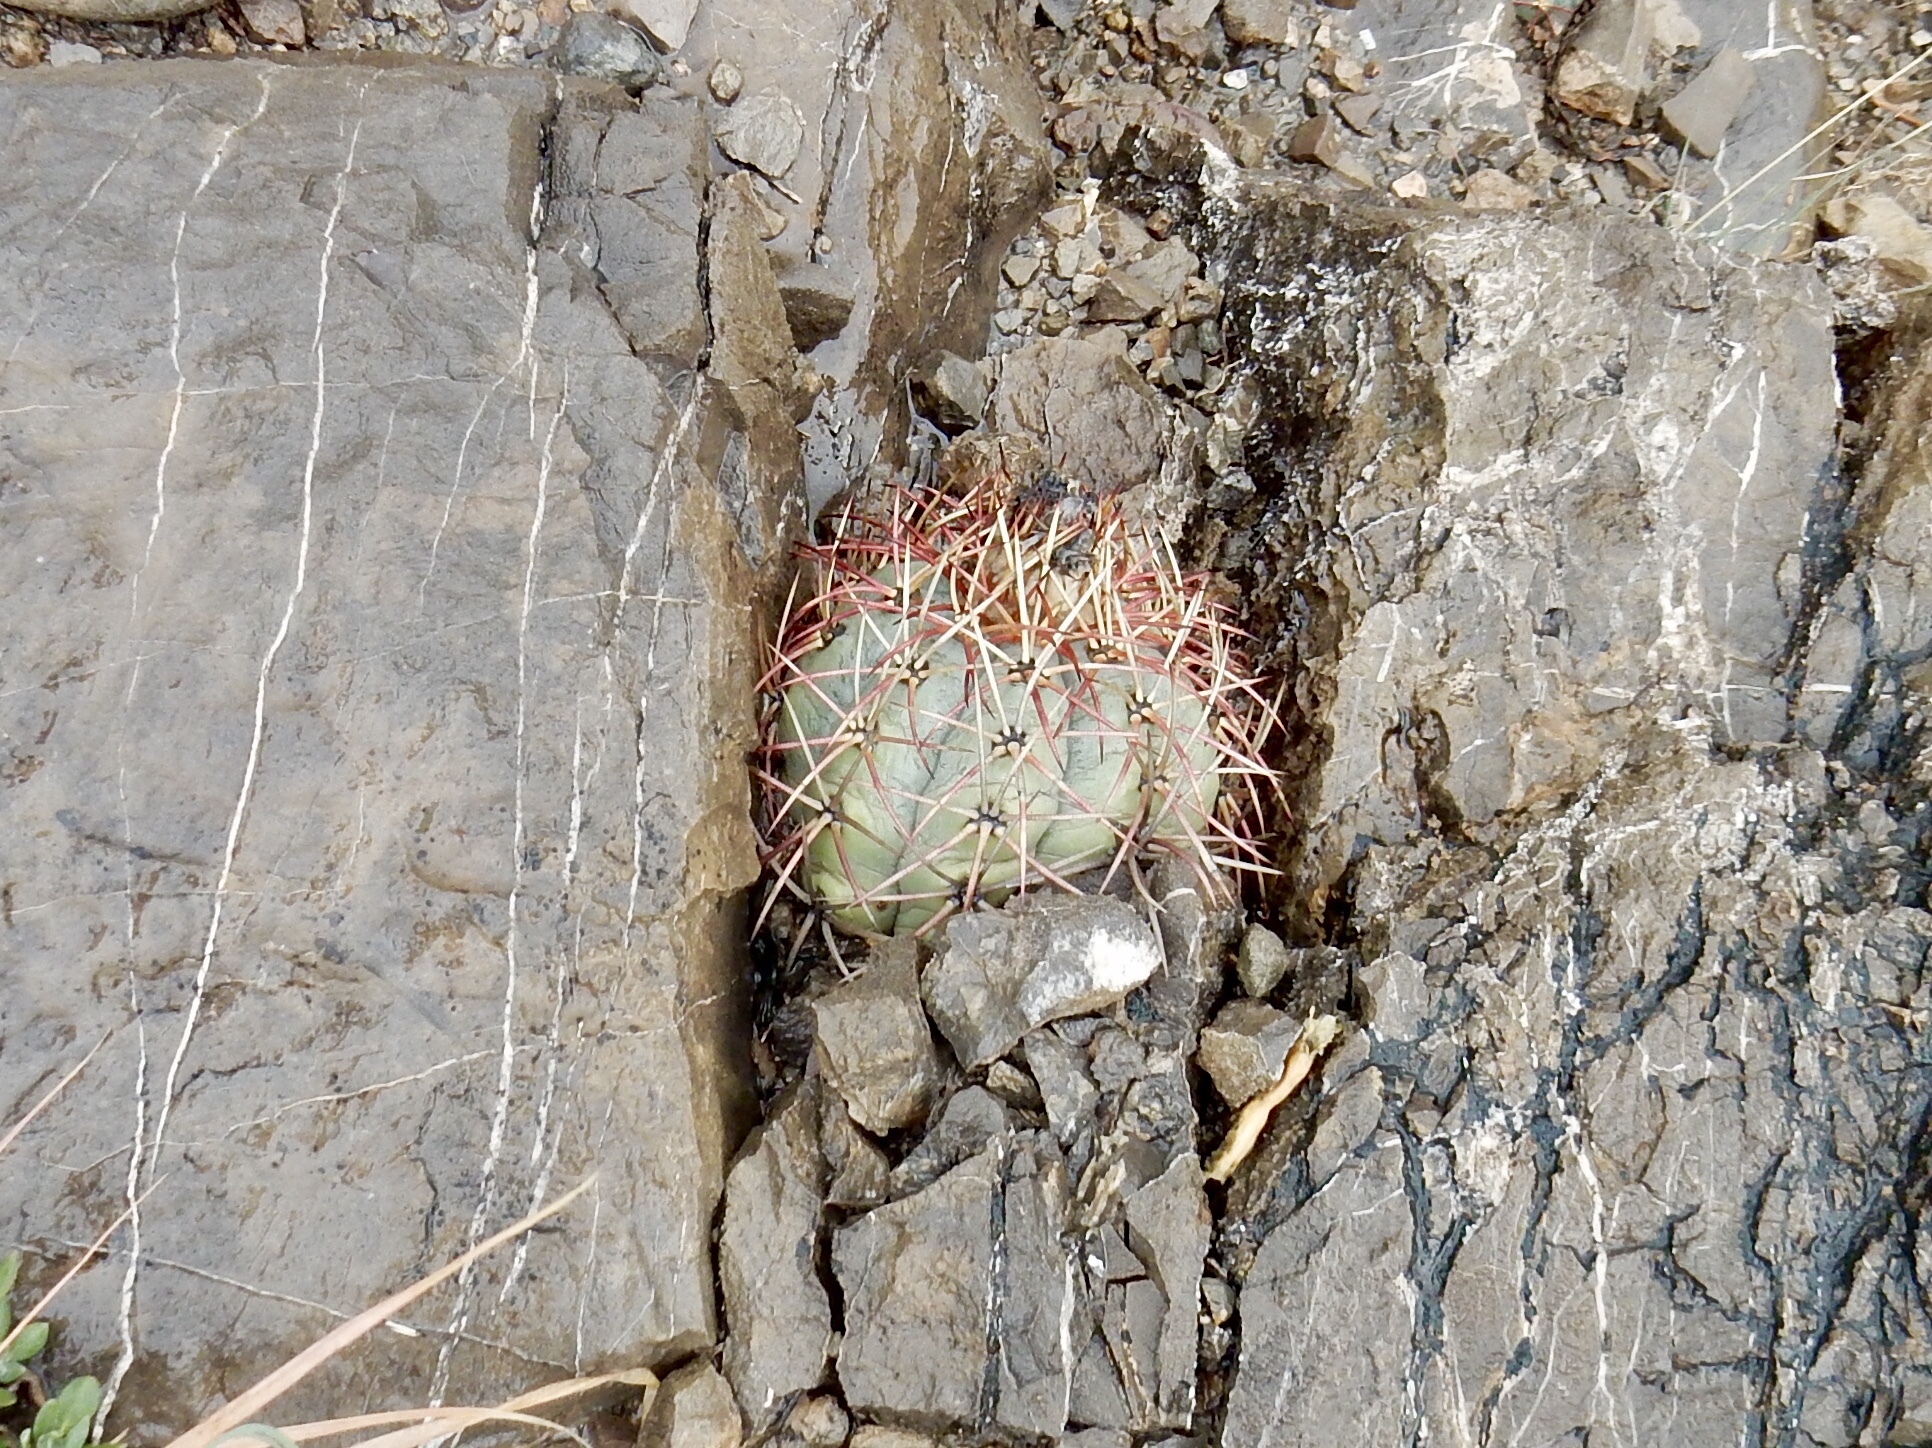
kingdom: Plantae
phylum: Tracheophyta
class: Magnoliopsida
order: Caryophyllales
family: Cactaceae
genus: Echinocactus
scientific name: Echinocactus horizonthalonius
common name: Devilshead
